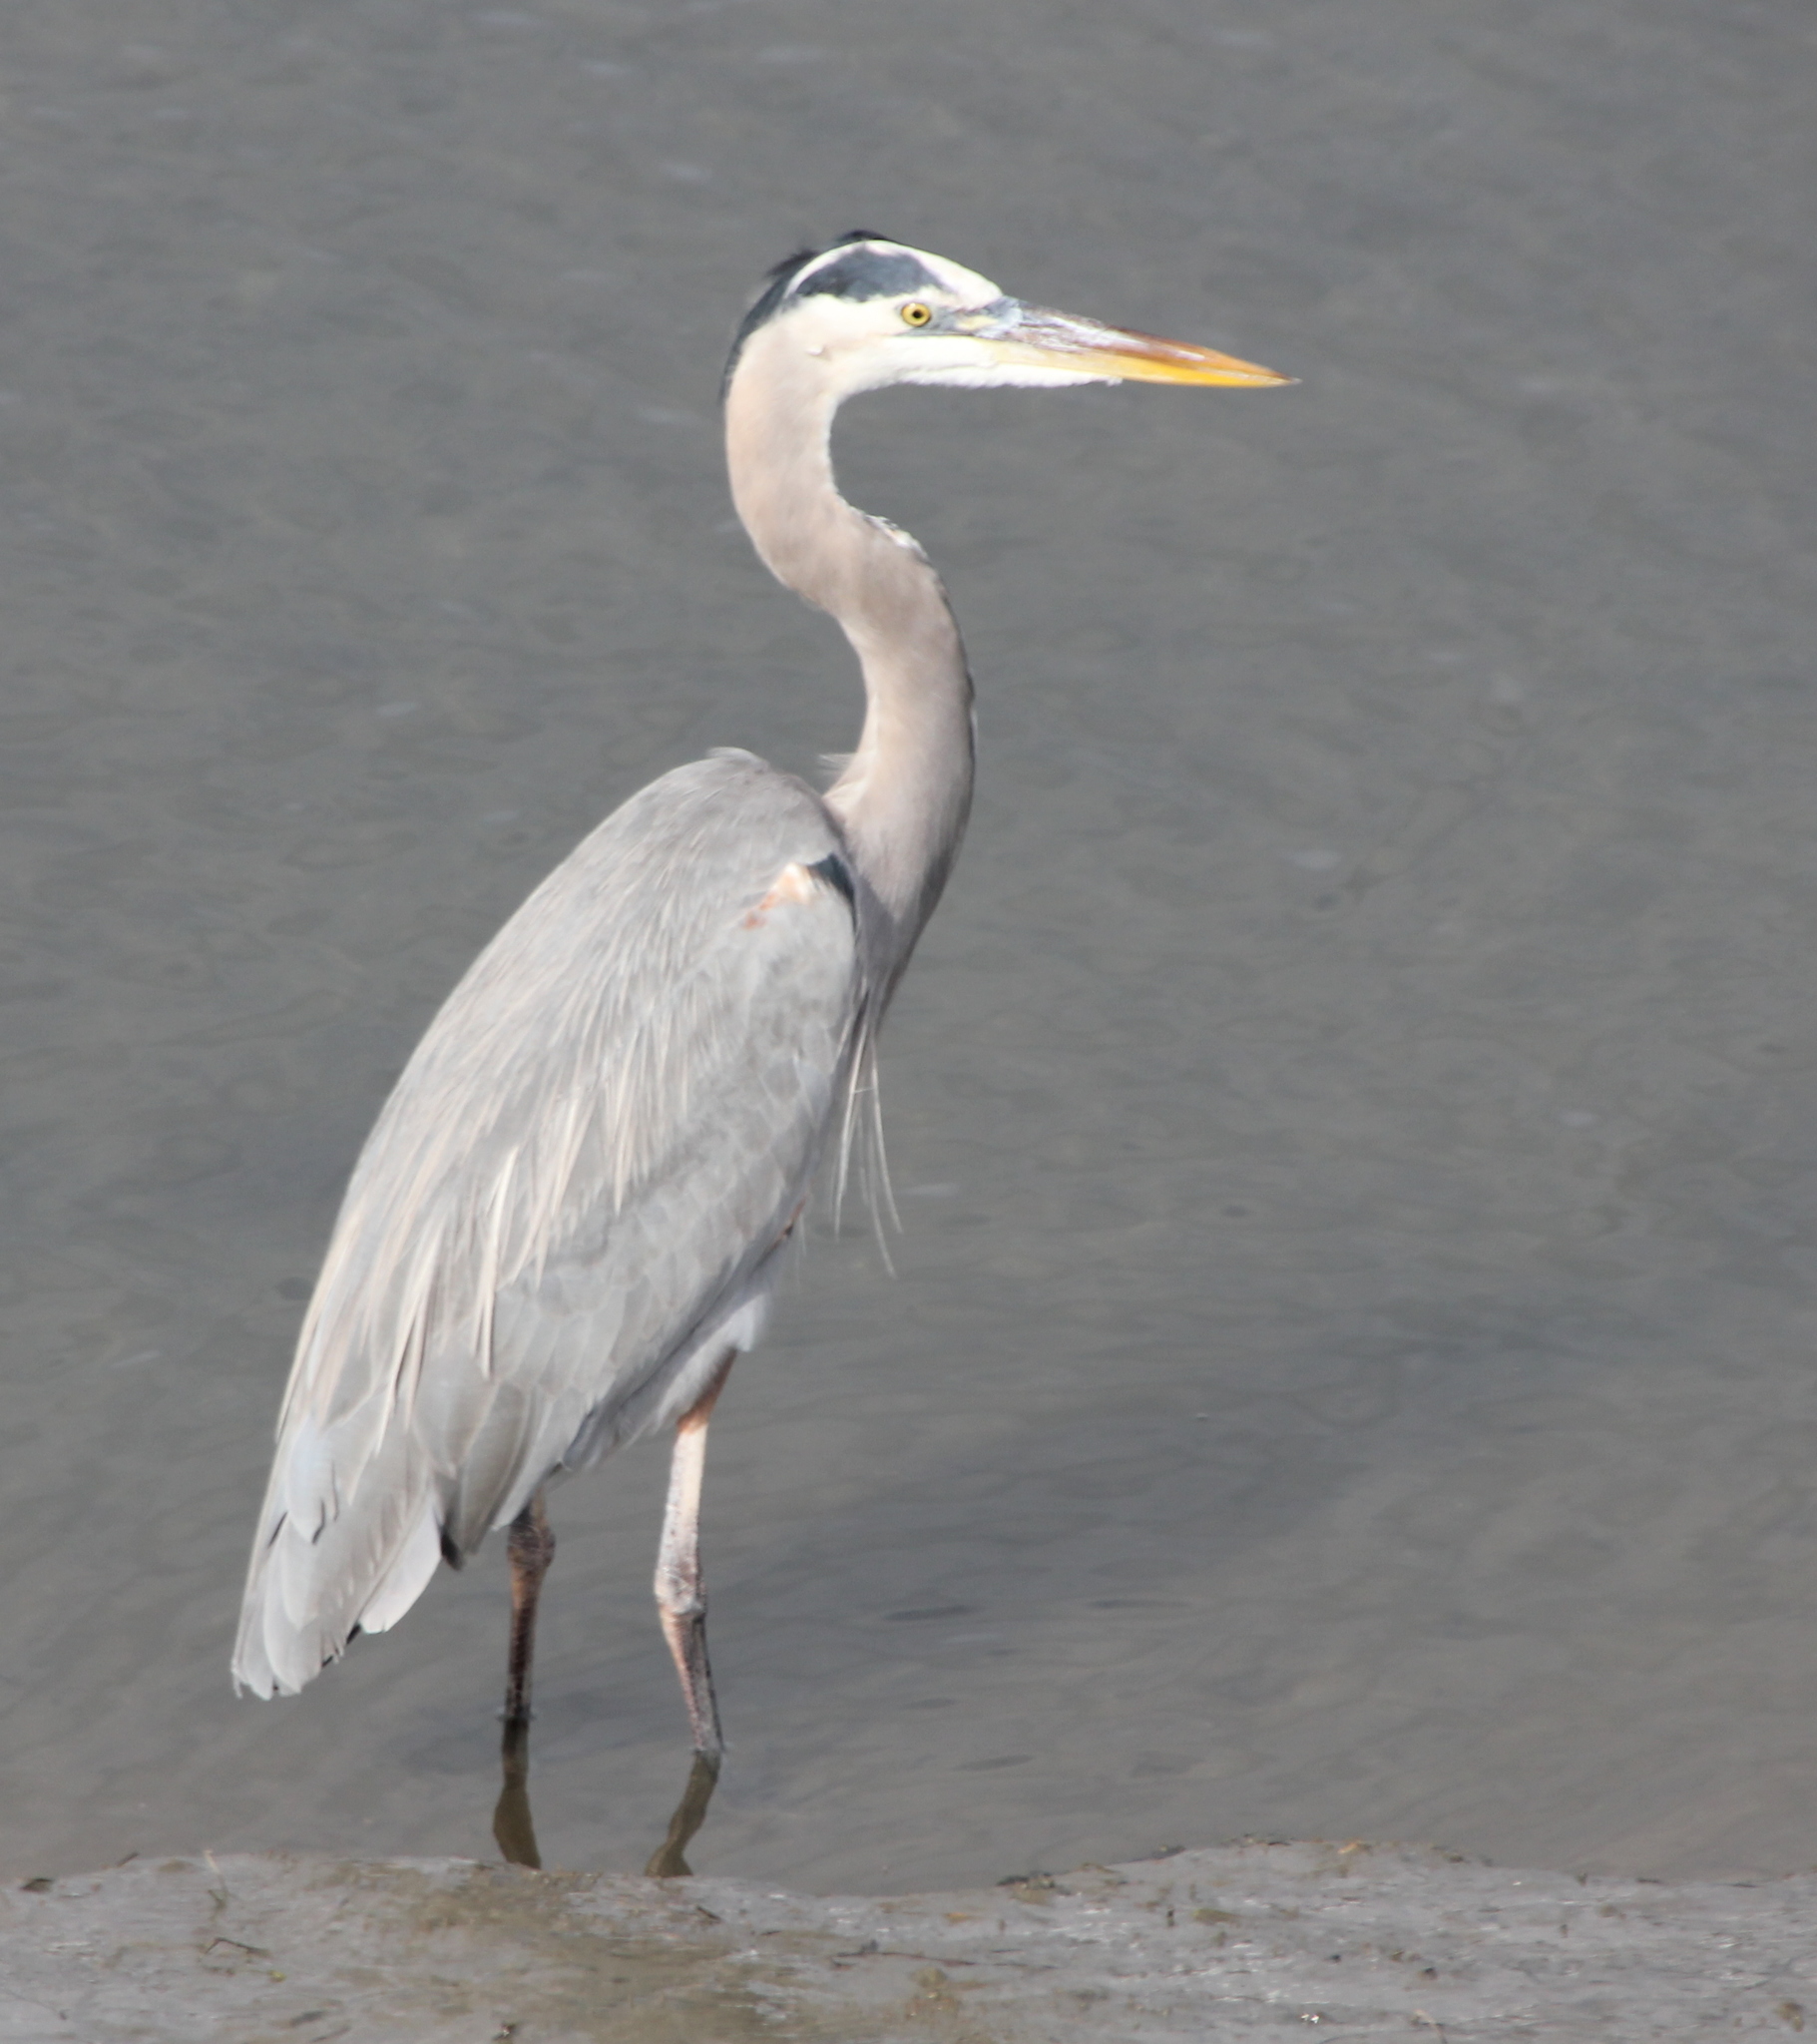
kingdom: Animalia
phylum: Chordata
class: Aves
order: Pelecaniformes
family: Ardeidae
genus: Ardea
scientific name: Ardea herodias
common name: Great blue heron
